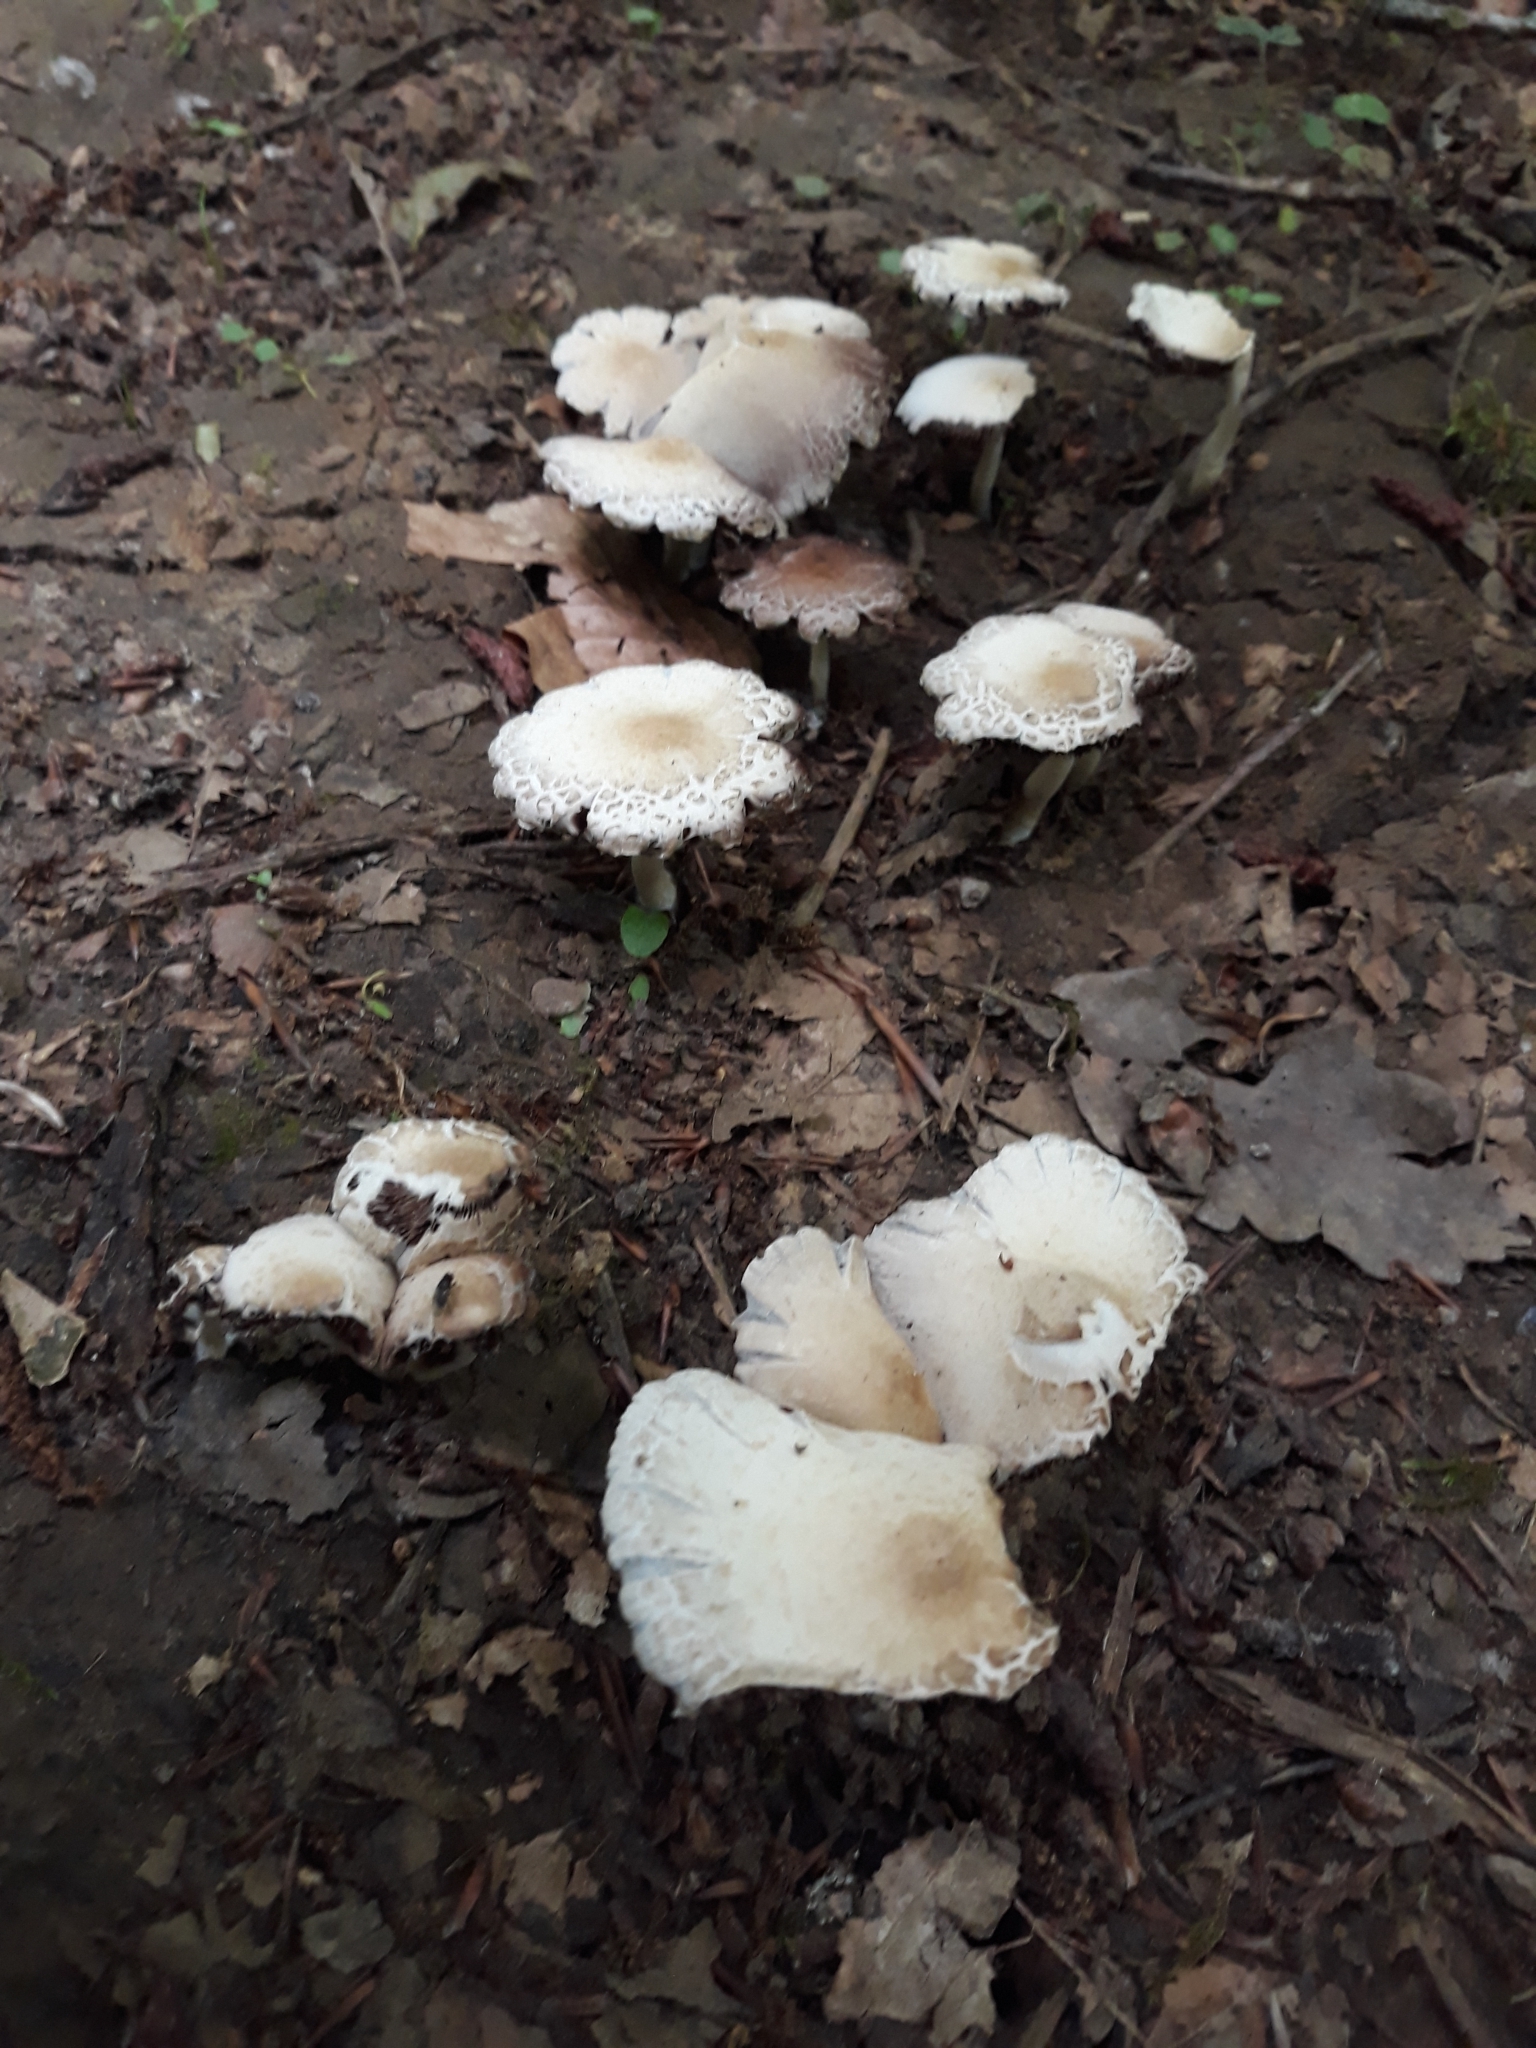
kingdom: Fungi
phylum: Basidiomycota
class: Agaricomycetes
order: Agaricales
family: Psathyrellaceae
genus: Candolleomyces
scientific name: Candolleomyces candolleanus
